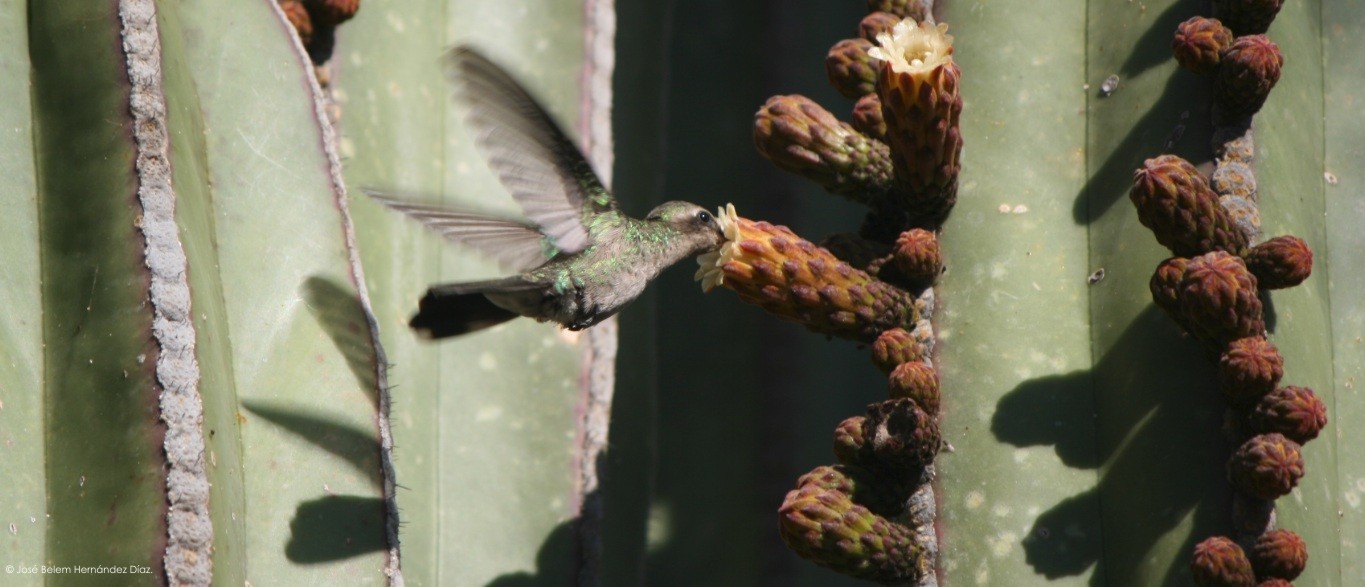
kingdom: Animalia
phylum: Chordata
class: Aves
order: Apodiformes
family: Trochilidae
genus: Cynanthus
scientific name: Cynanthus latirostris
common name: Broad-billed hummingbird
